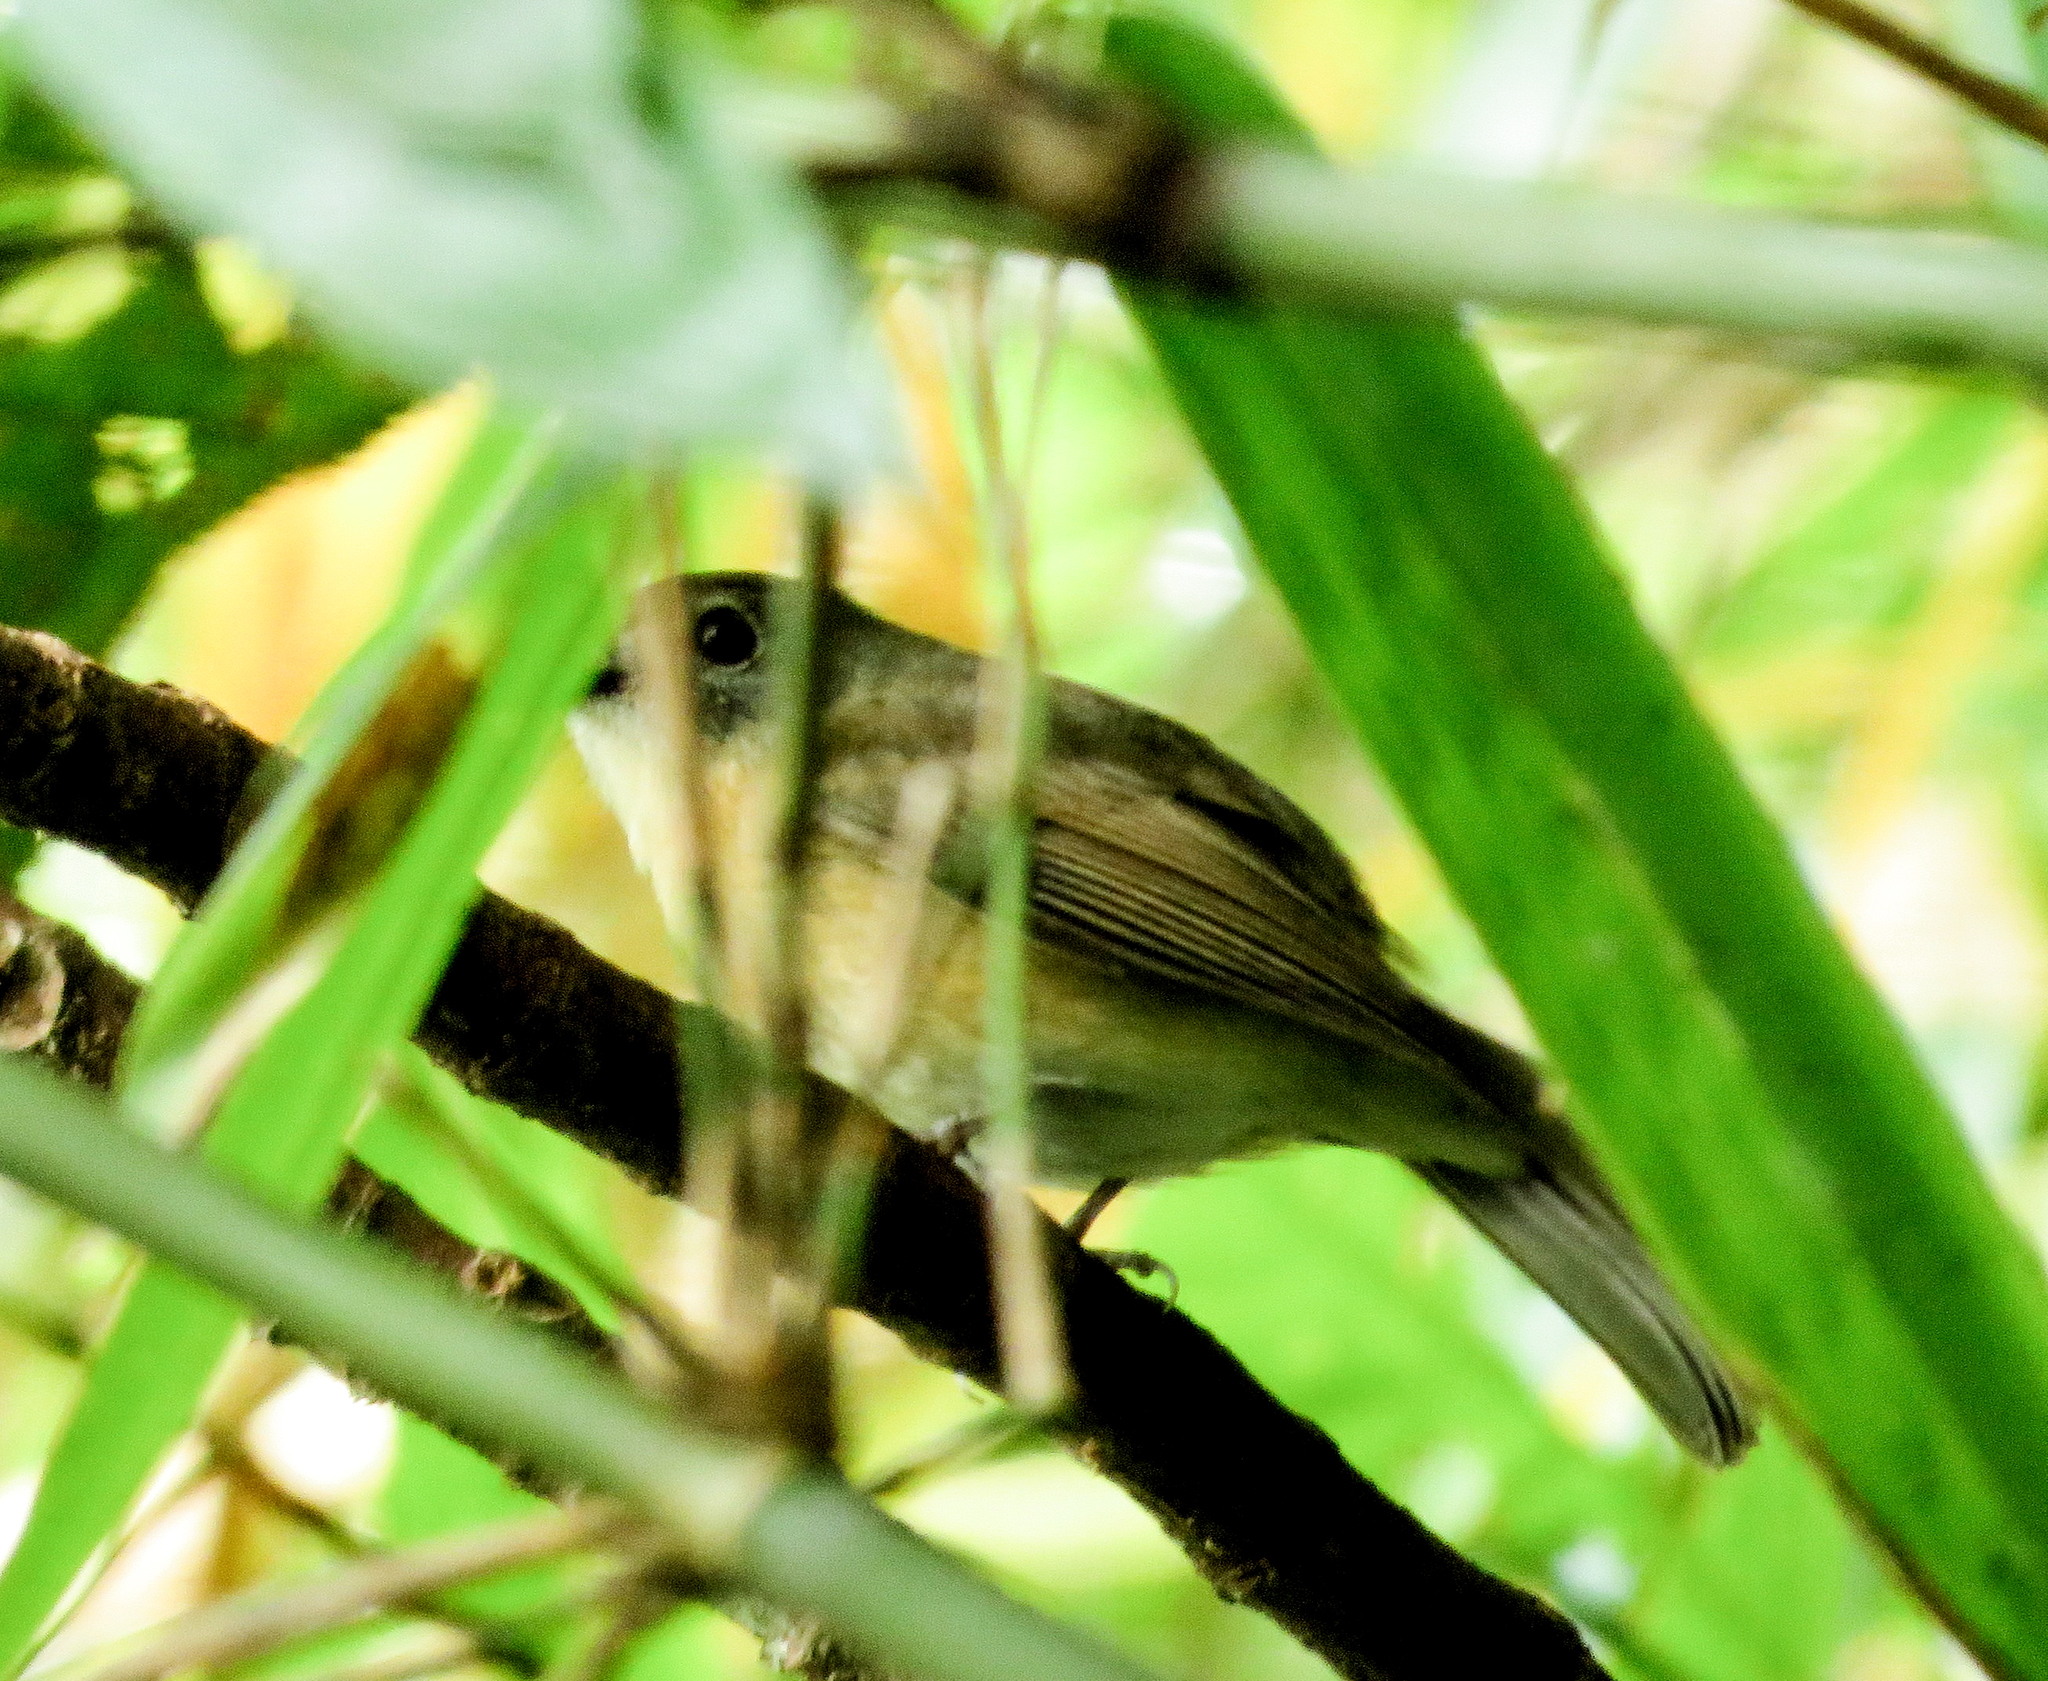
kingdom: Animalia
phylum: Chordata
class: Aves
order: Passeriformes
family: Muscicapidae
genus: Cyornis
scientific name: Cyornis poliogenys
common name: Pale-chinned blue flycatcher
